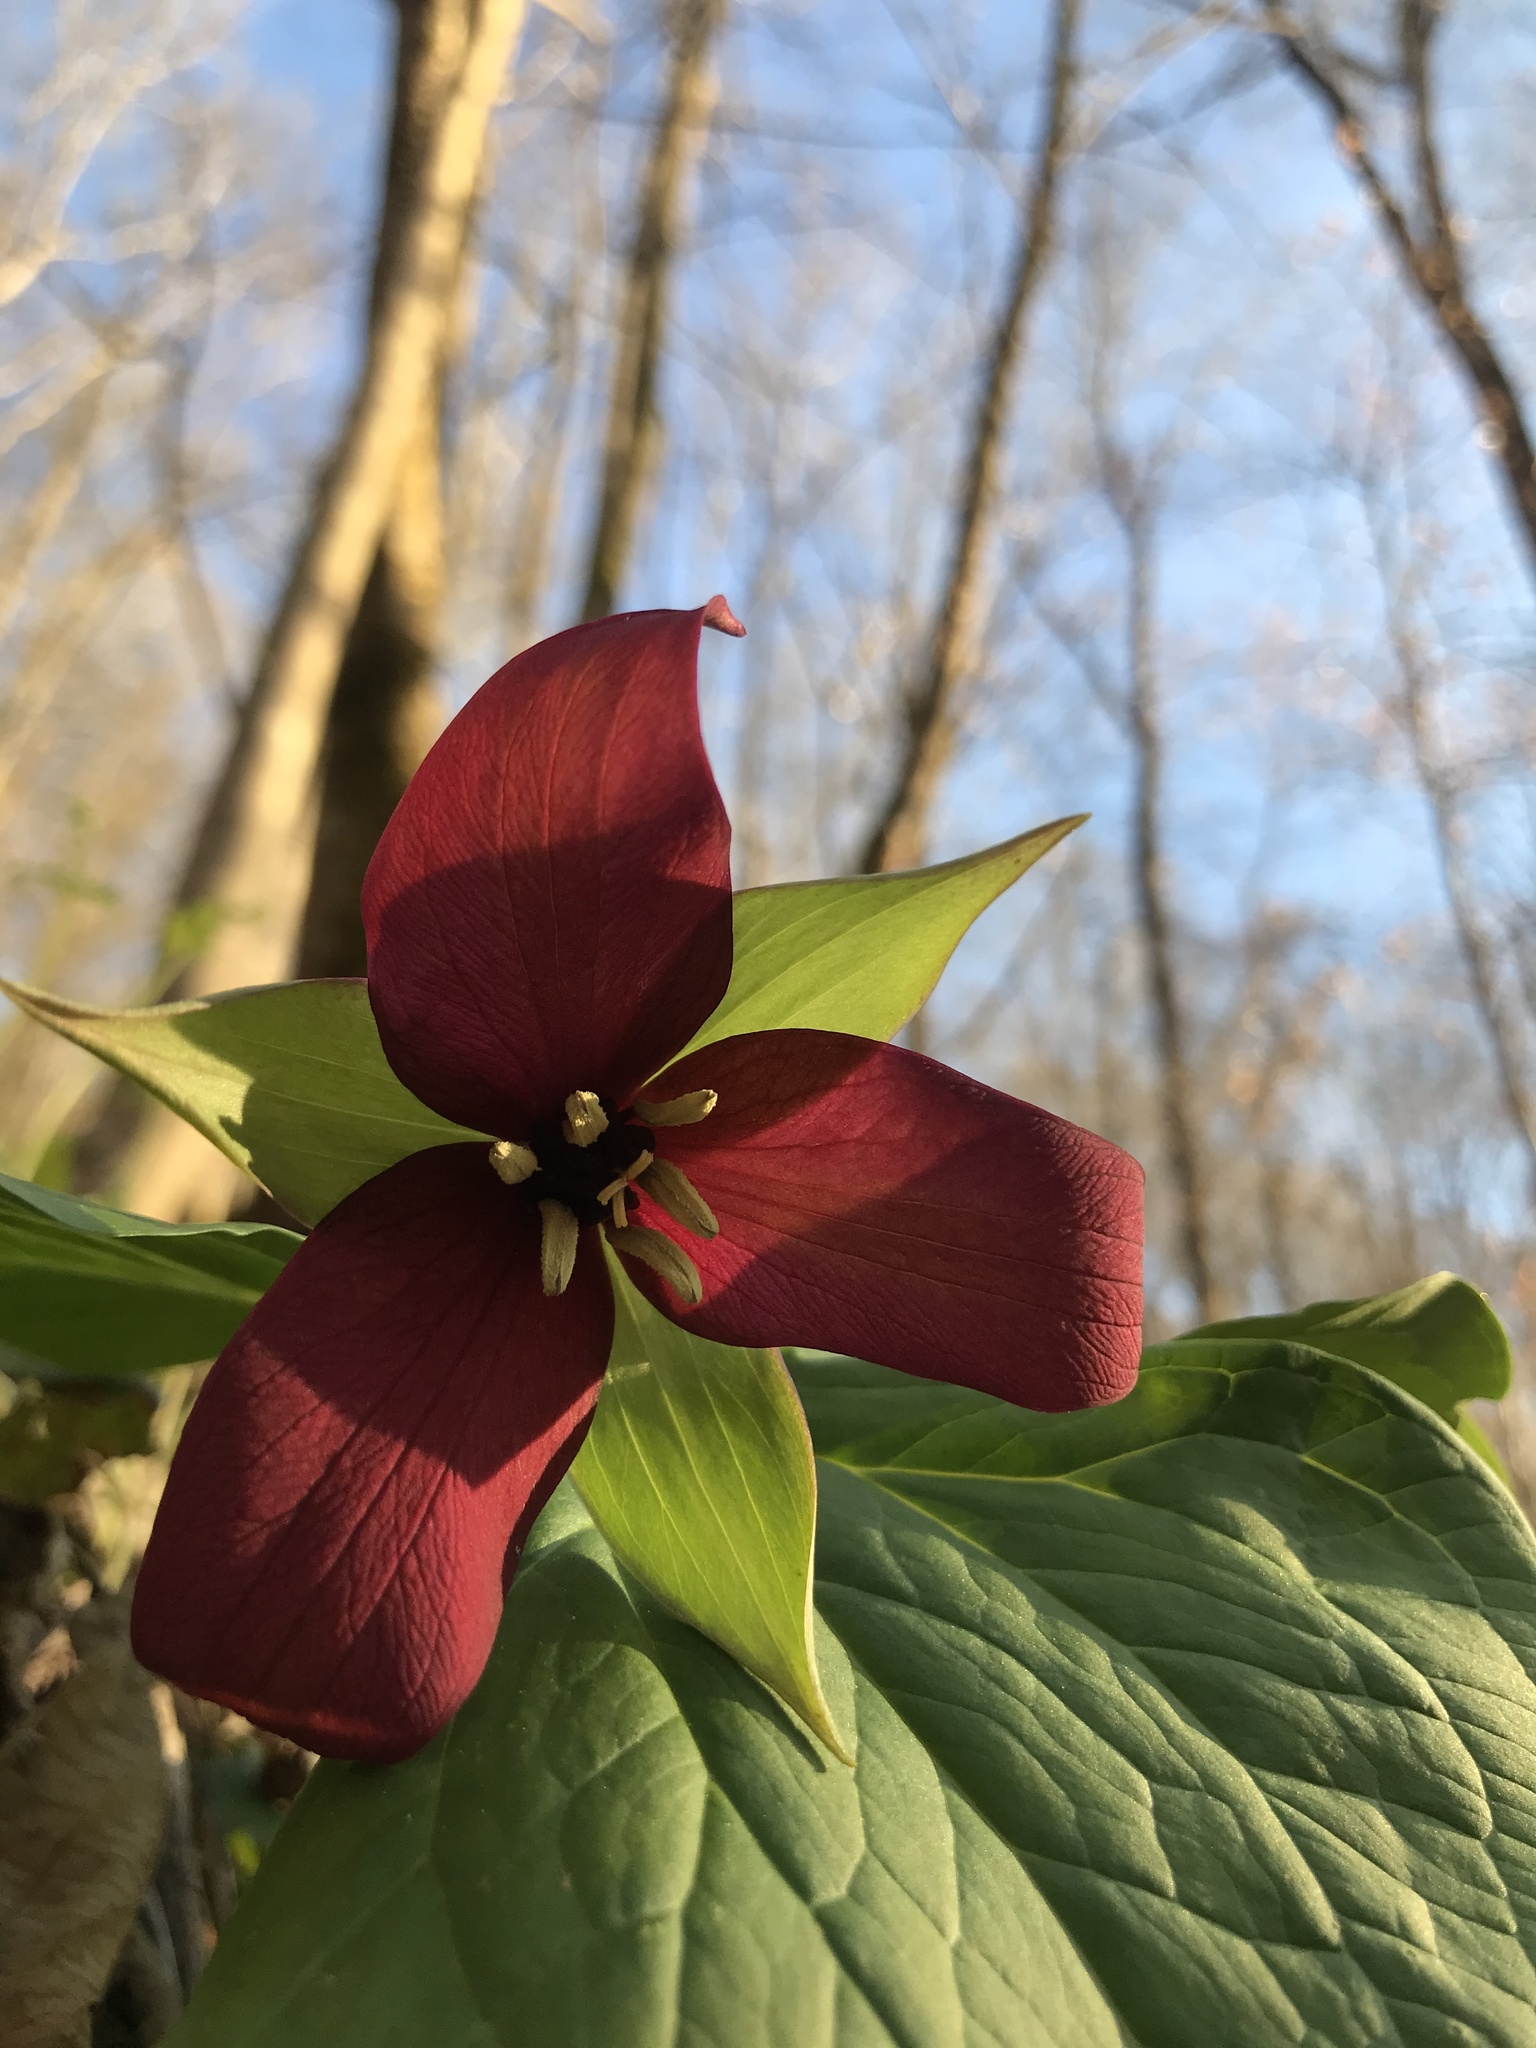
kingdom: Plantae
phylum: Tracheophyta
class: Liliopsida
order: Liliales
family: Melanthiaceae
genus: Trillium
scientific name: Trillium erectum
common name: Purple trillium
